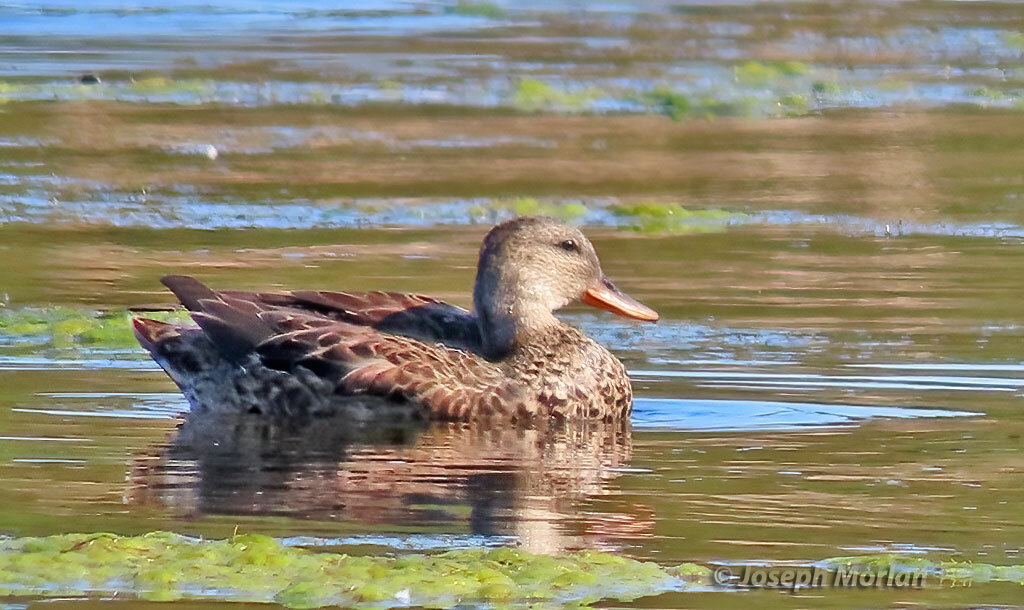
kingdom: Animalia
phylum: Chordata
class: Aves
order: Anseriformes
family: Anatidae
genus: Mareca
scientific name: Mareca strepera
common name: Gadwall
